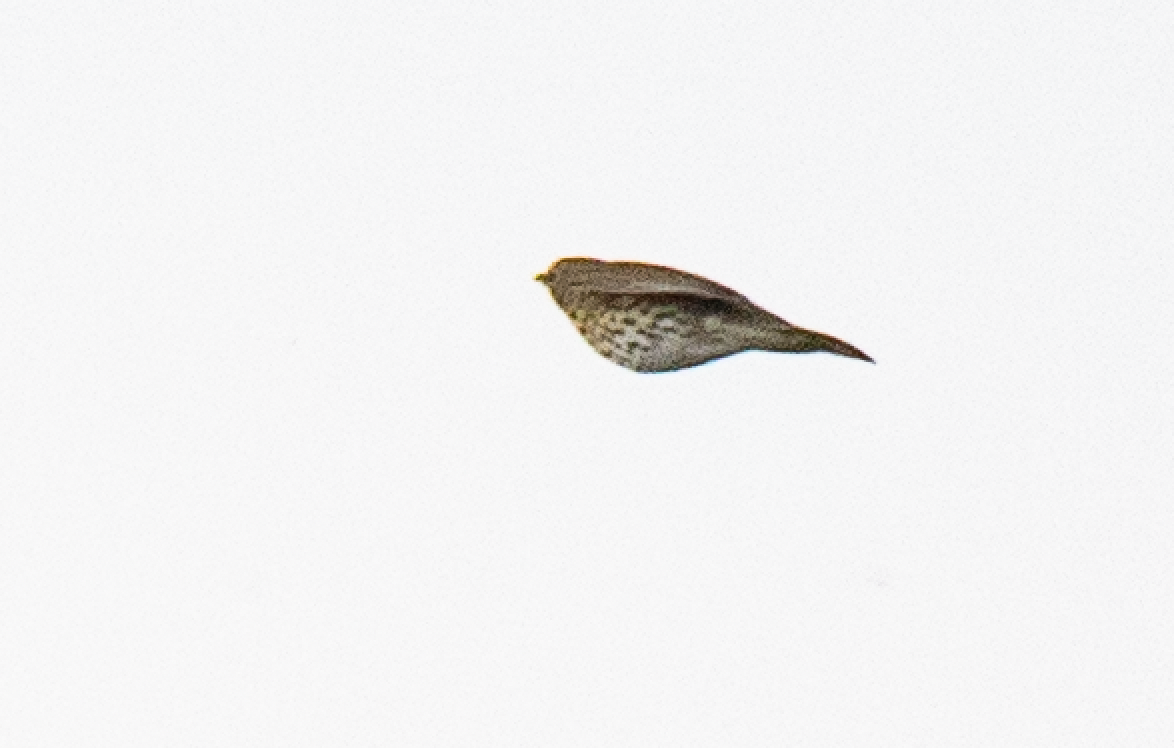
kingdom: Animalia
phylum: Chordata
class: Aves
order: Passeriformes
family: Turdidae
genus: Turdus
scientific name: Turdus philomelos
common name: Song thrush
